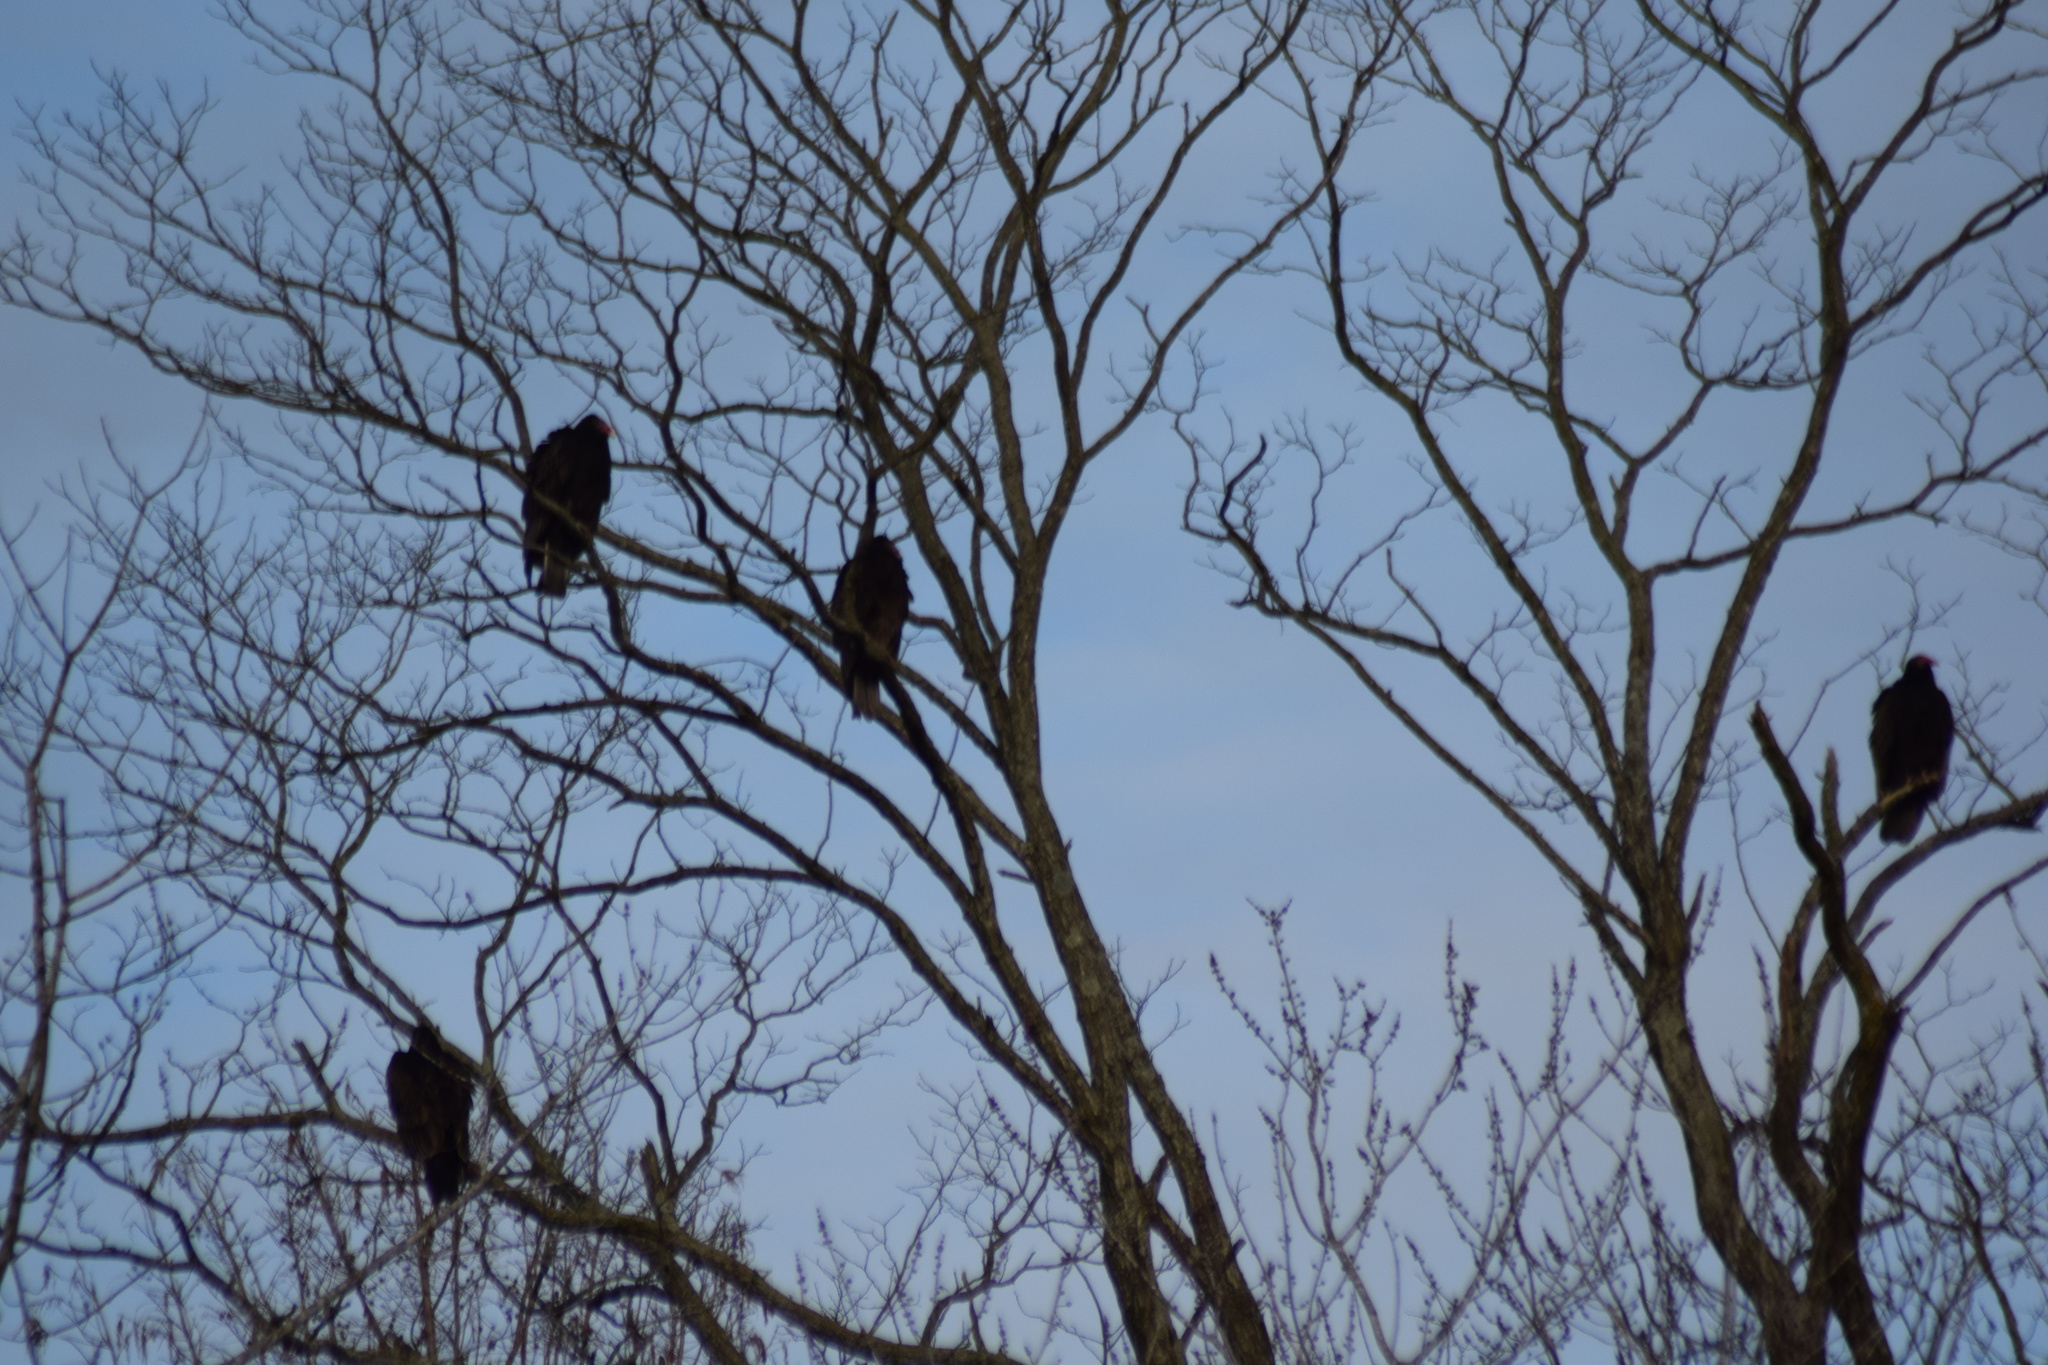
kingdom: Animalia
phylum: Chordata
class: Aves
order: Accipitriformes
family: Cathartidae
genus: Cathartes
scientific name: Cathartes aura
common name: Turkey vulture
